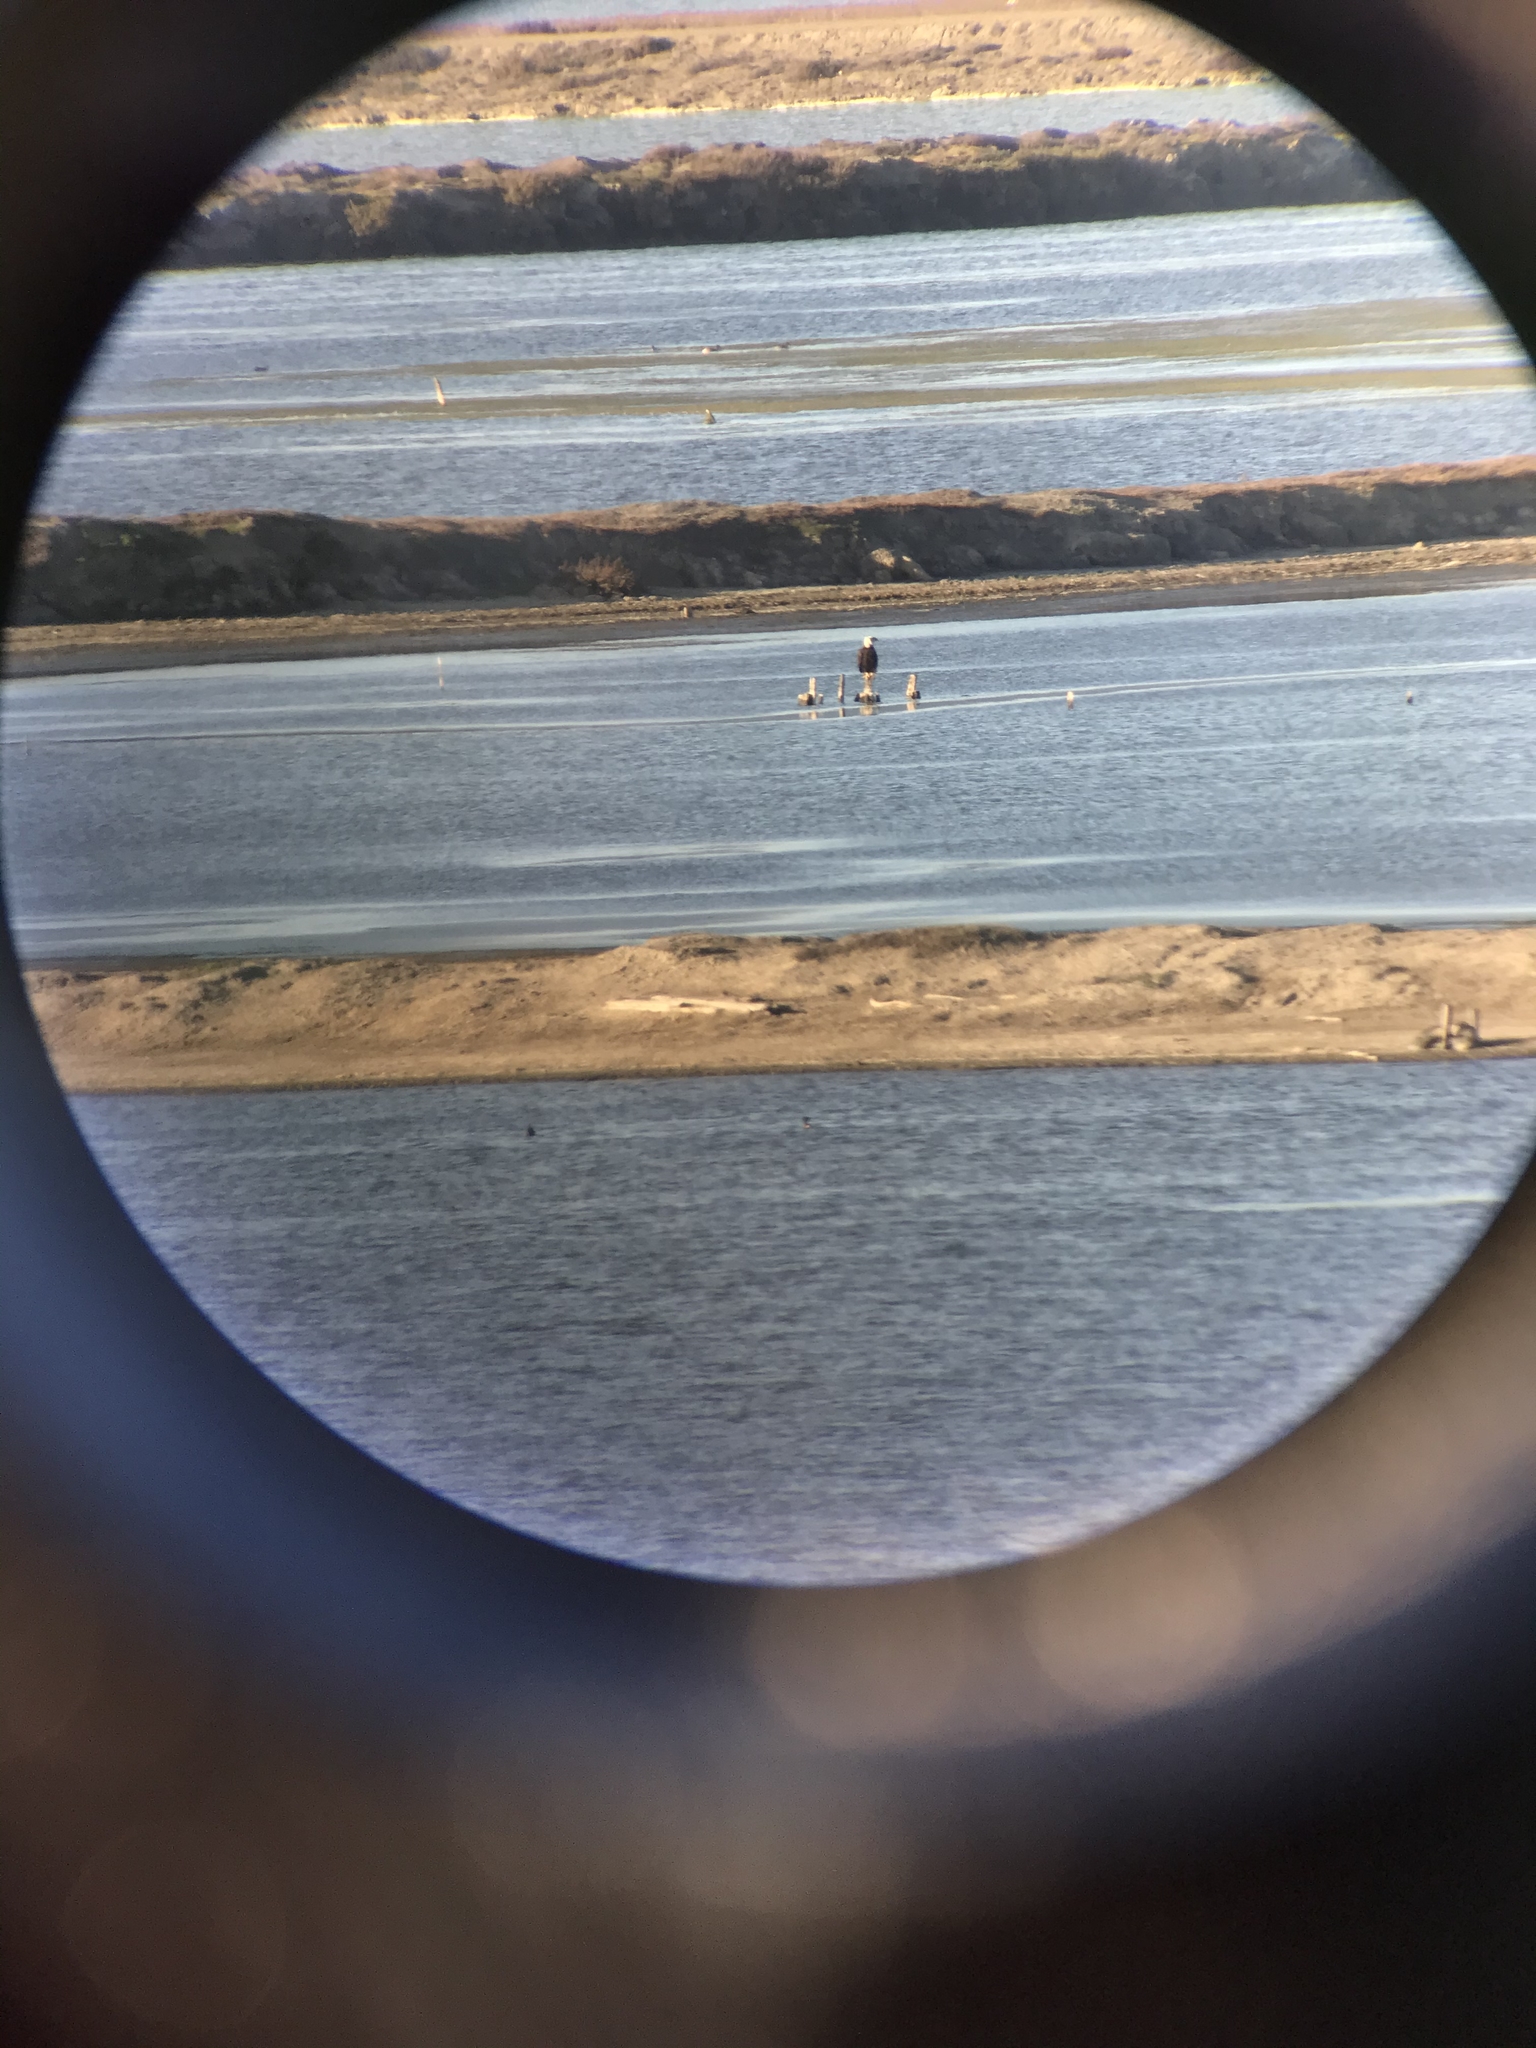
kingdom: Animalia
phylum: Chordata
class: Aves
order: Accipitriformes
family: Accipitridae
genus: Haliaeetus
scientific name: Haliaeetus leucocephalus
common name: Bald eagle
